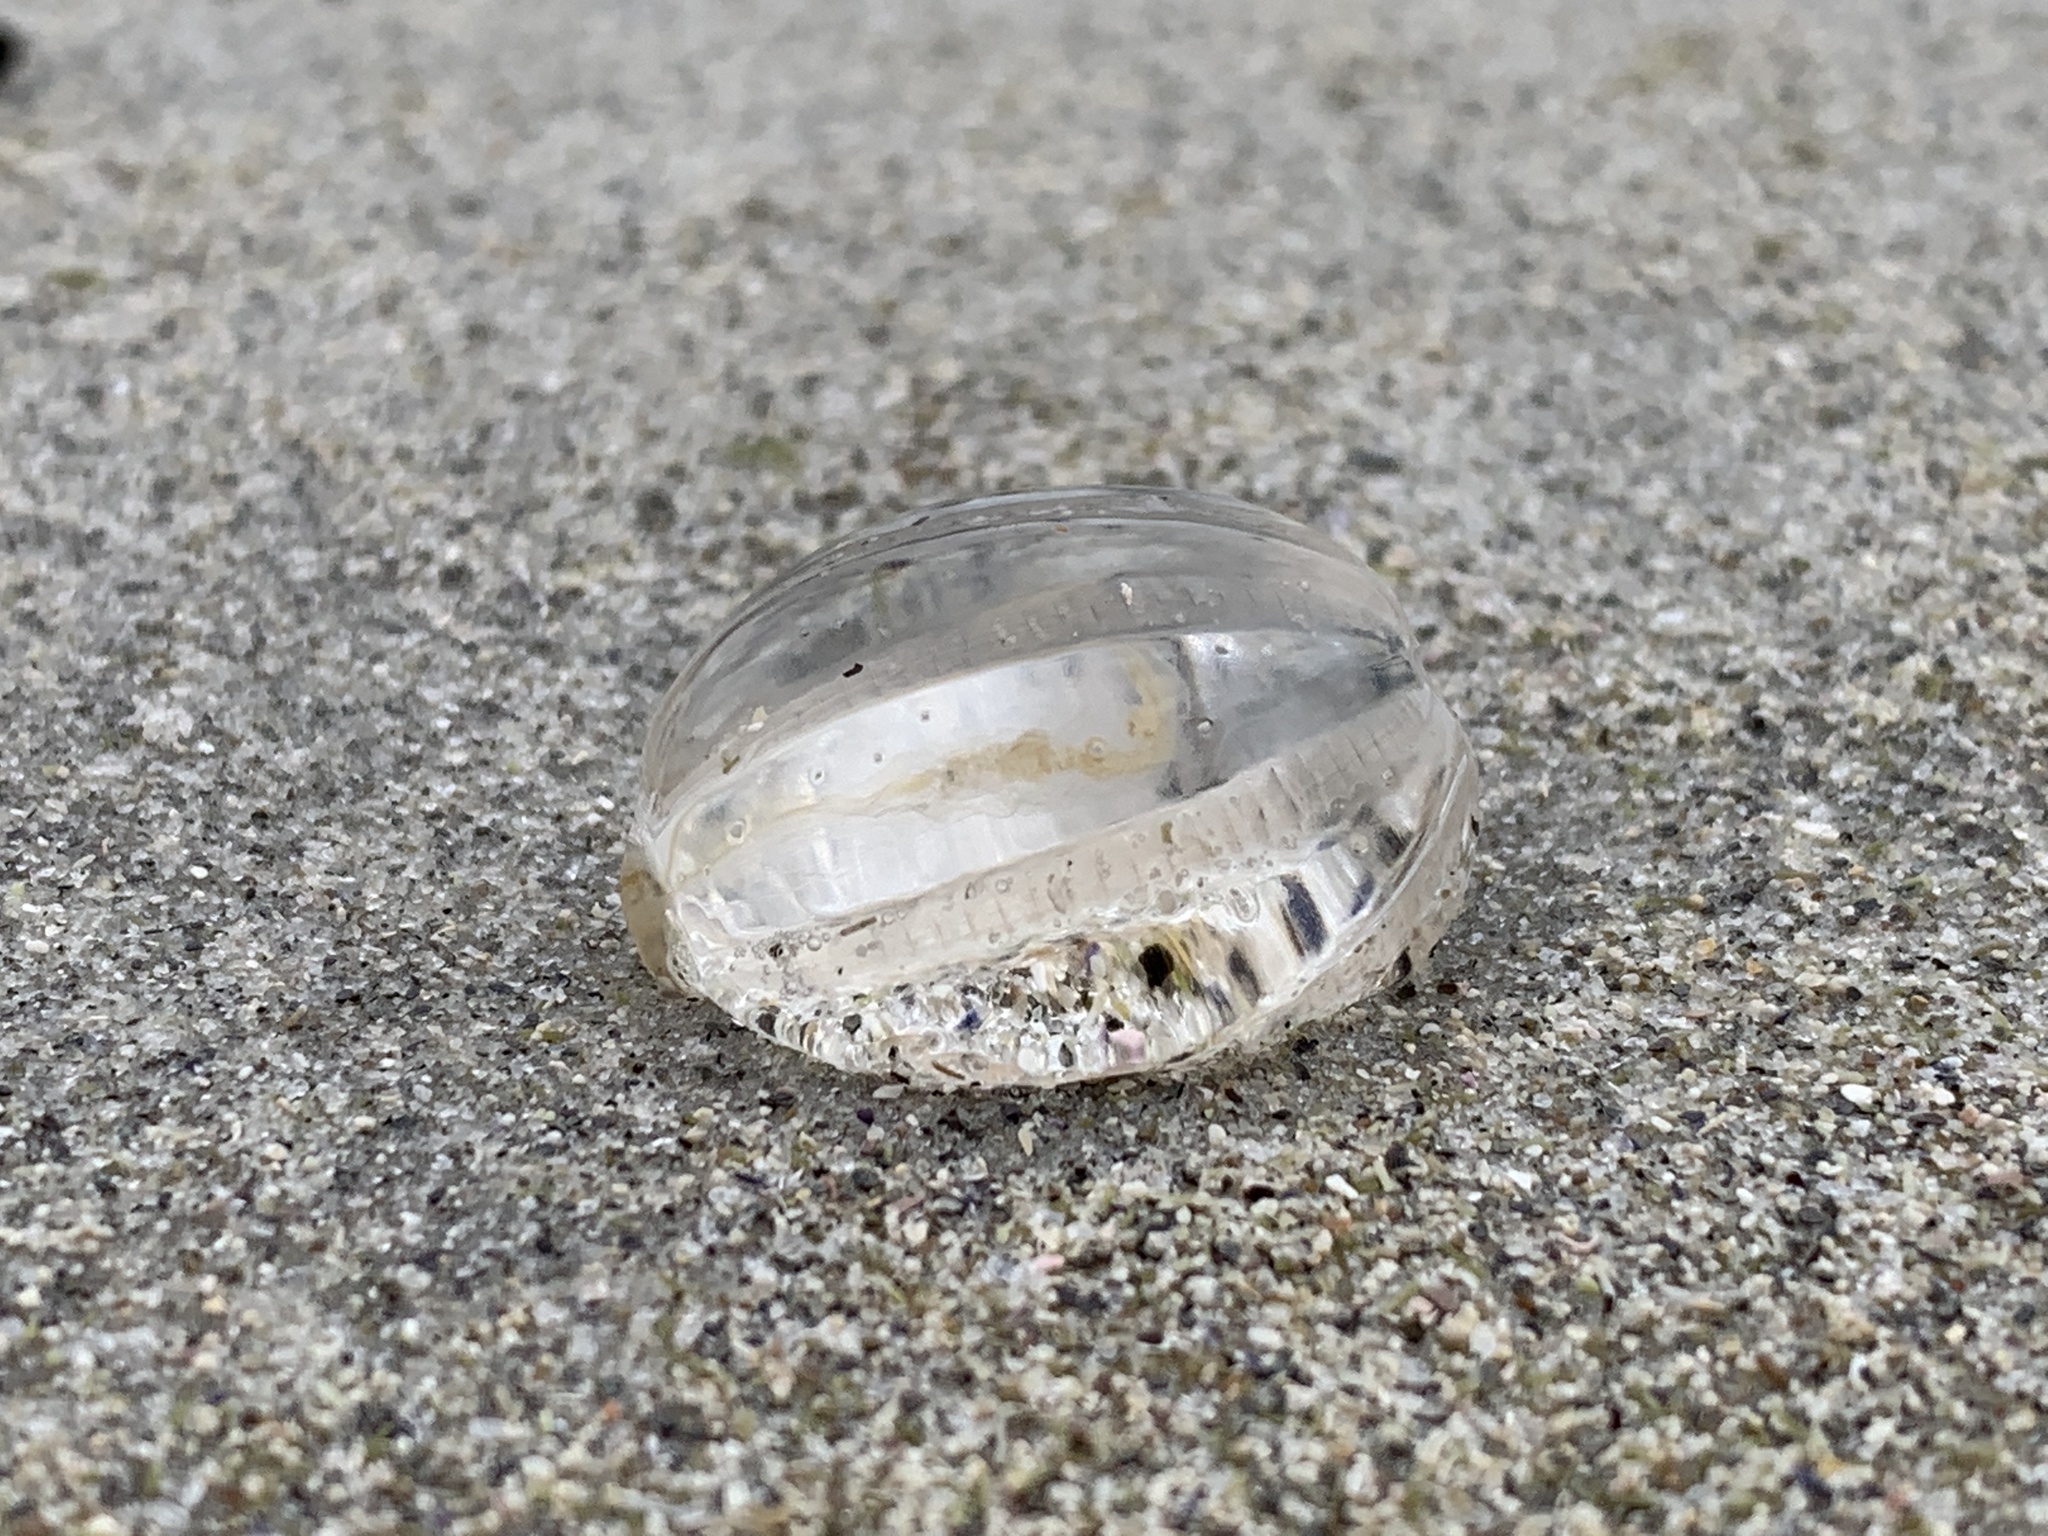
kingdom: Animalia
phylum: Ctenophora
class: Tentaculata
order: Cydippida
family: Pleurobrachiidae
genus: Pleurobrachia
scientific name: Pleurobrachia pileus
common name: Sea gooseberry
